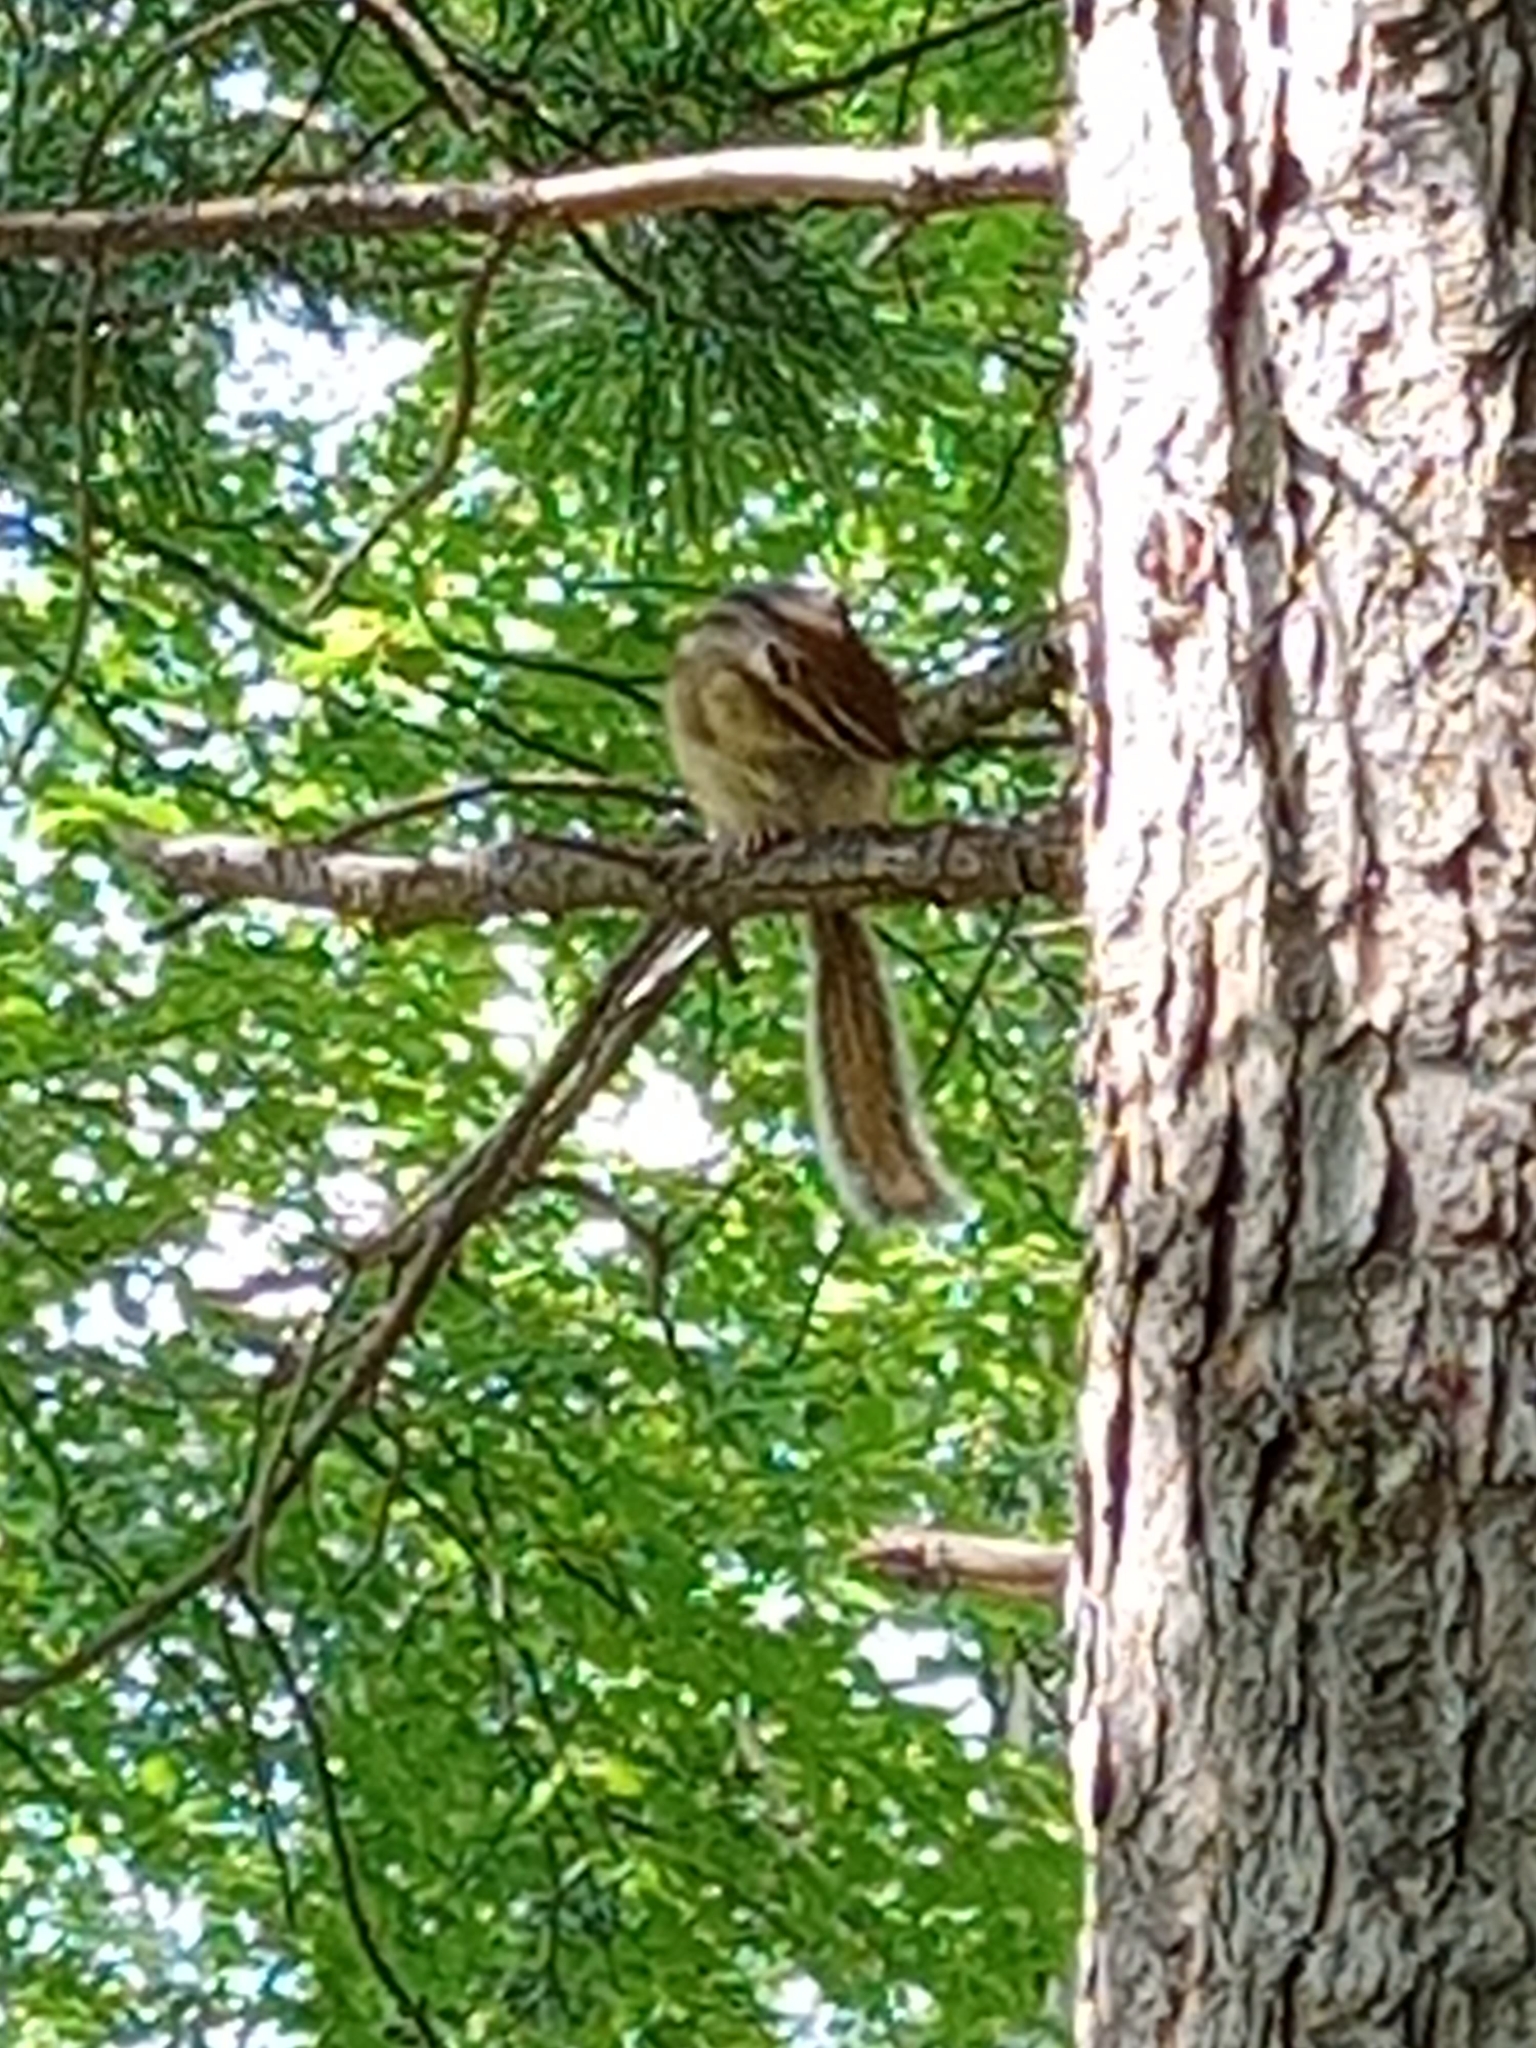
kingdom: Animalia
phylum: Chordata
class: Mammalia
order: Rodentia
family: Sciuridae
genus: Tamias
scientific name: Tamias sibiricus
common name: Siberian chipmunk
